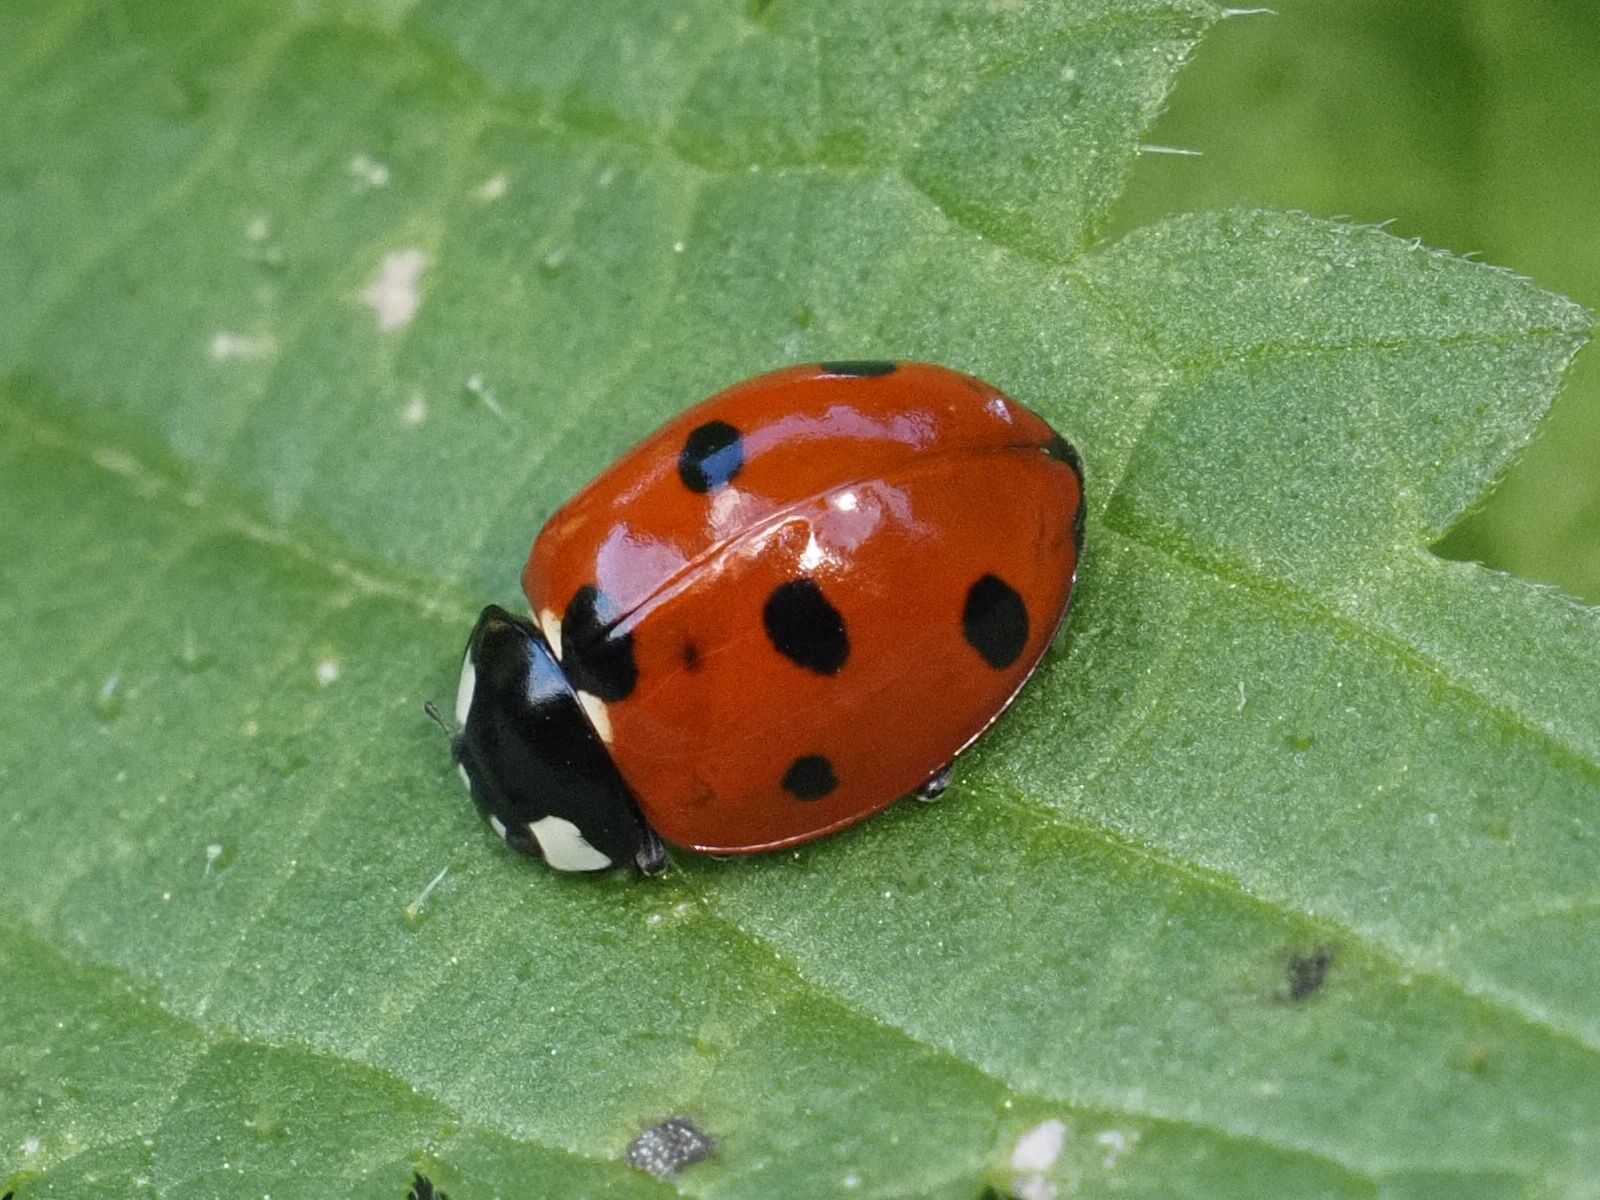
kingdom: Animalia
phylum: Arthropoda
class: Insecta
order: Coleoptera
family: Coccinellidae
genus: Coccinella
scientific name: Coccinella septempunctata
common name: Sevenspotted lady beetle
